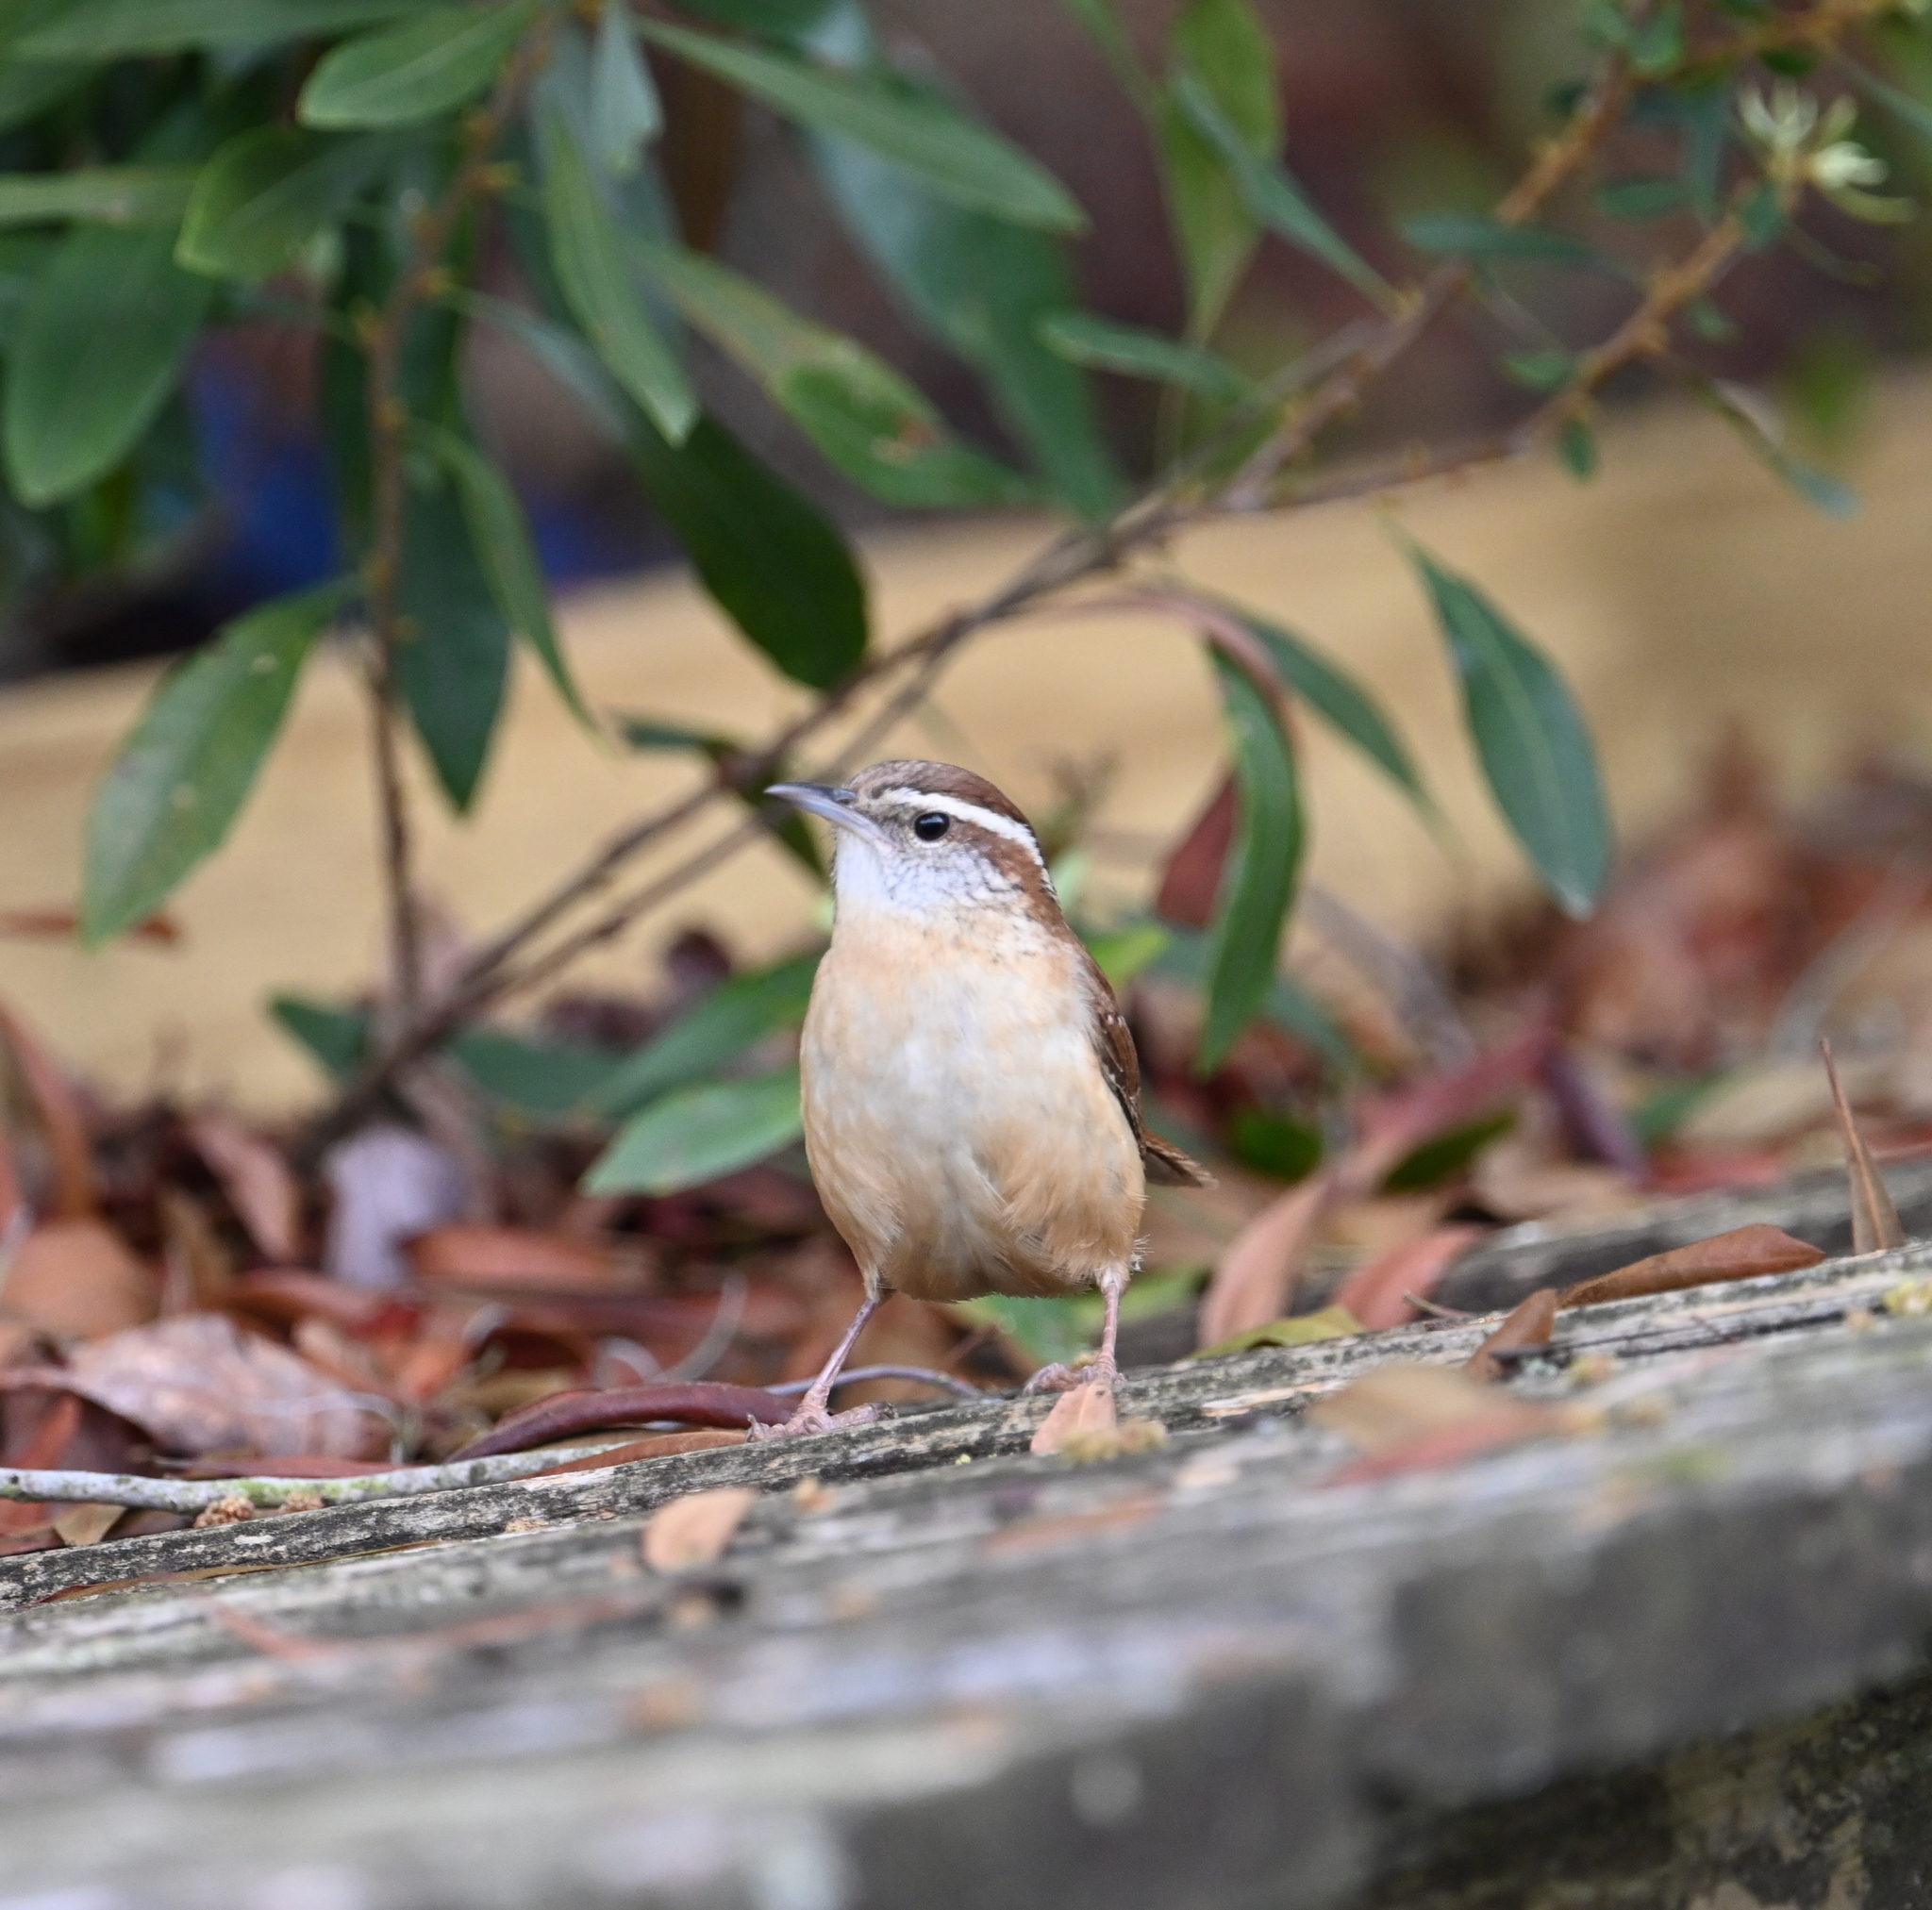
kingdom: Animalia
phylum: Chordata
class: Aves
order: Passeriformes
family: Troglodytidae
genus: Thryothorus
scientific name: Thryothorus ludovicianus
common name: Carolina wren
